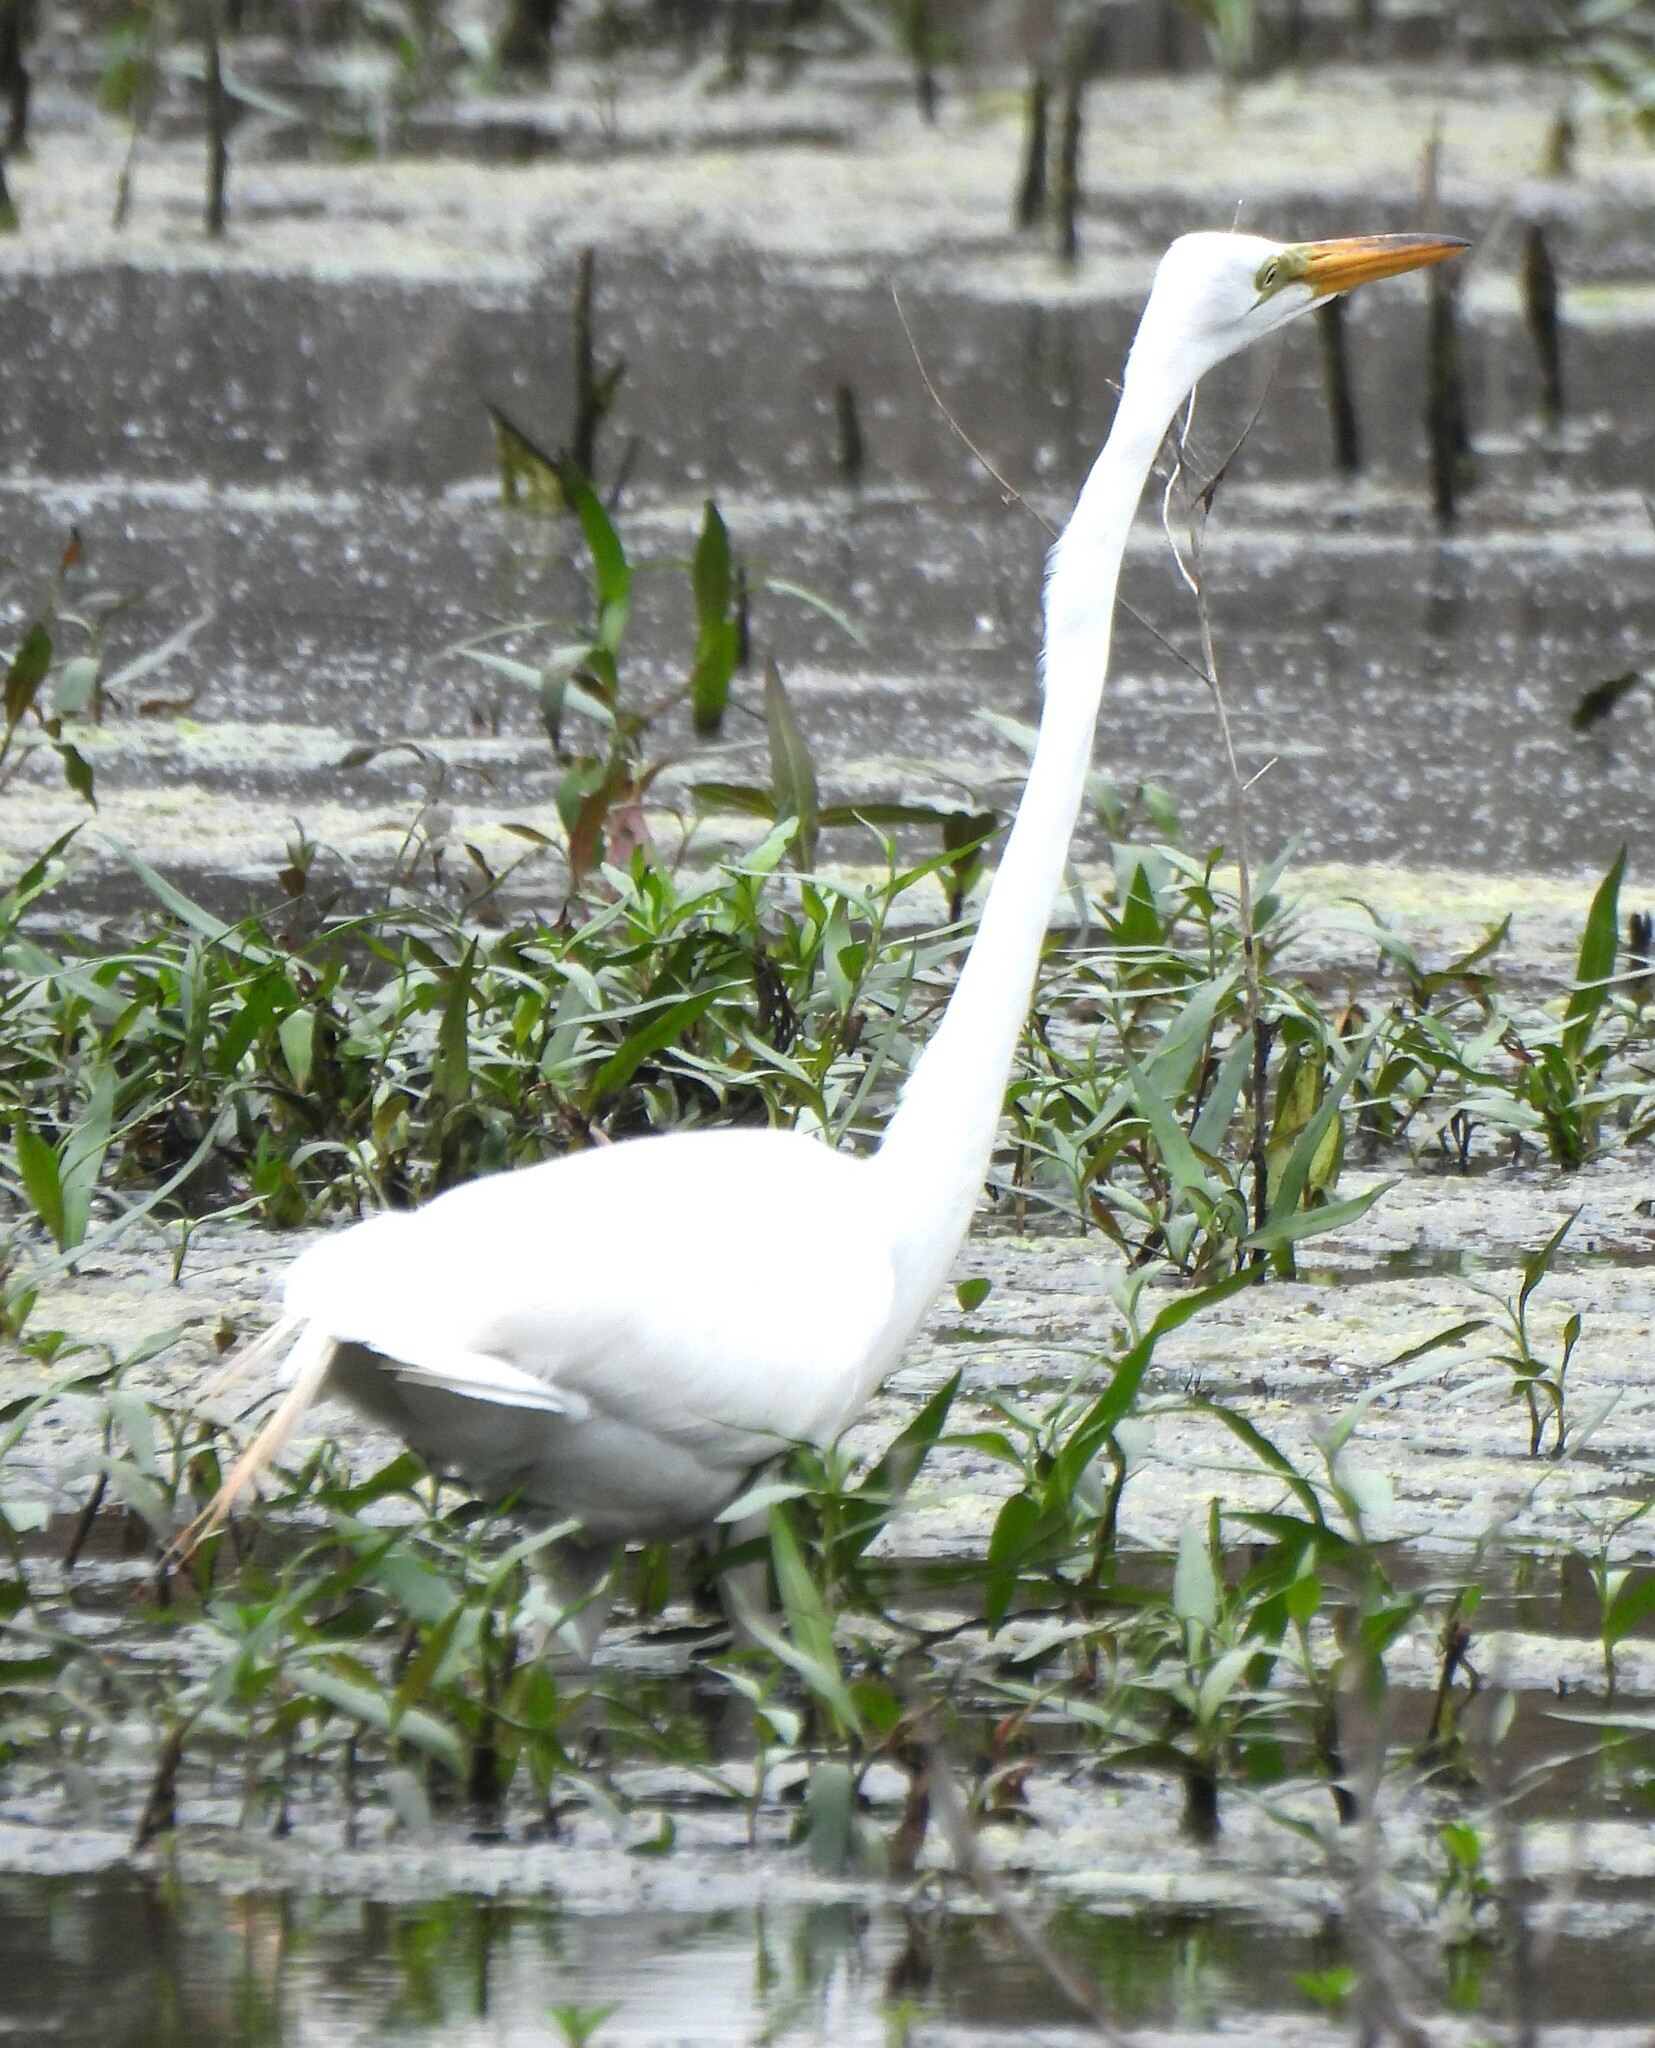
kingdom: Animalia
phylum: Chordata
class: Aves
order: Pelecaniformes
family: Ardeidae
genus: Ardea
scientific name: Ardea alba
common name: Great egret
